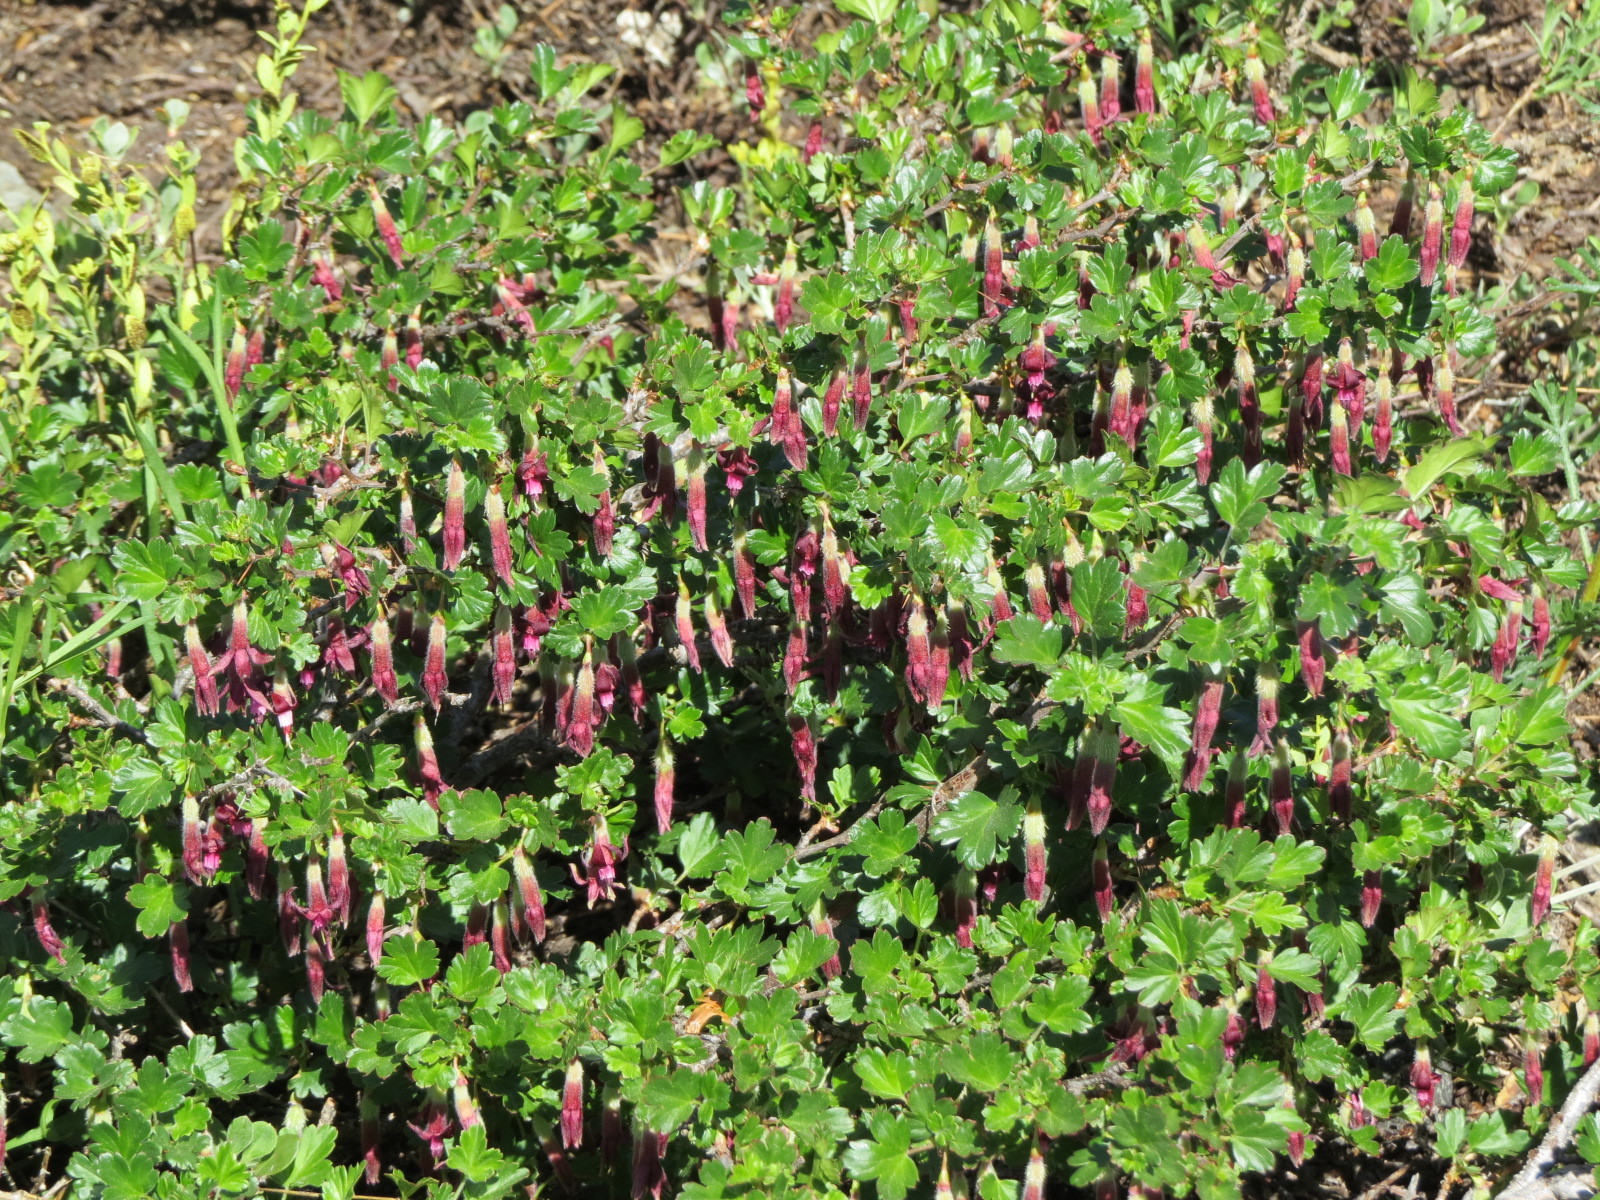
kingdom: Plantae
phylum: Tracheophyta
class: Magnoliopsida
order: Saxifragales
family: Grossulariaceae
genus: Ribes
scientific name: Ribes roezlii
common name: Sierra gooseberry
